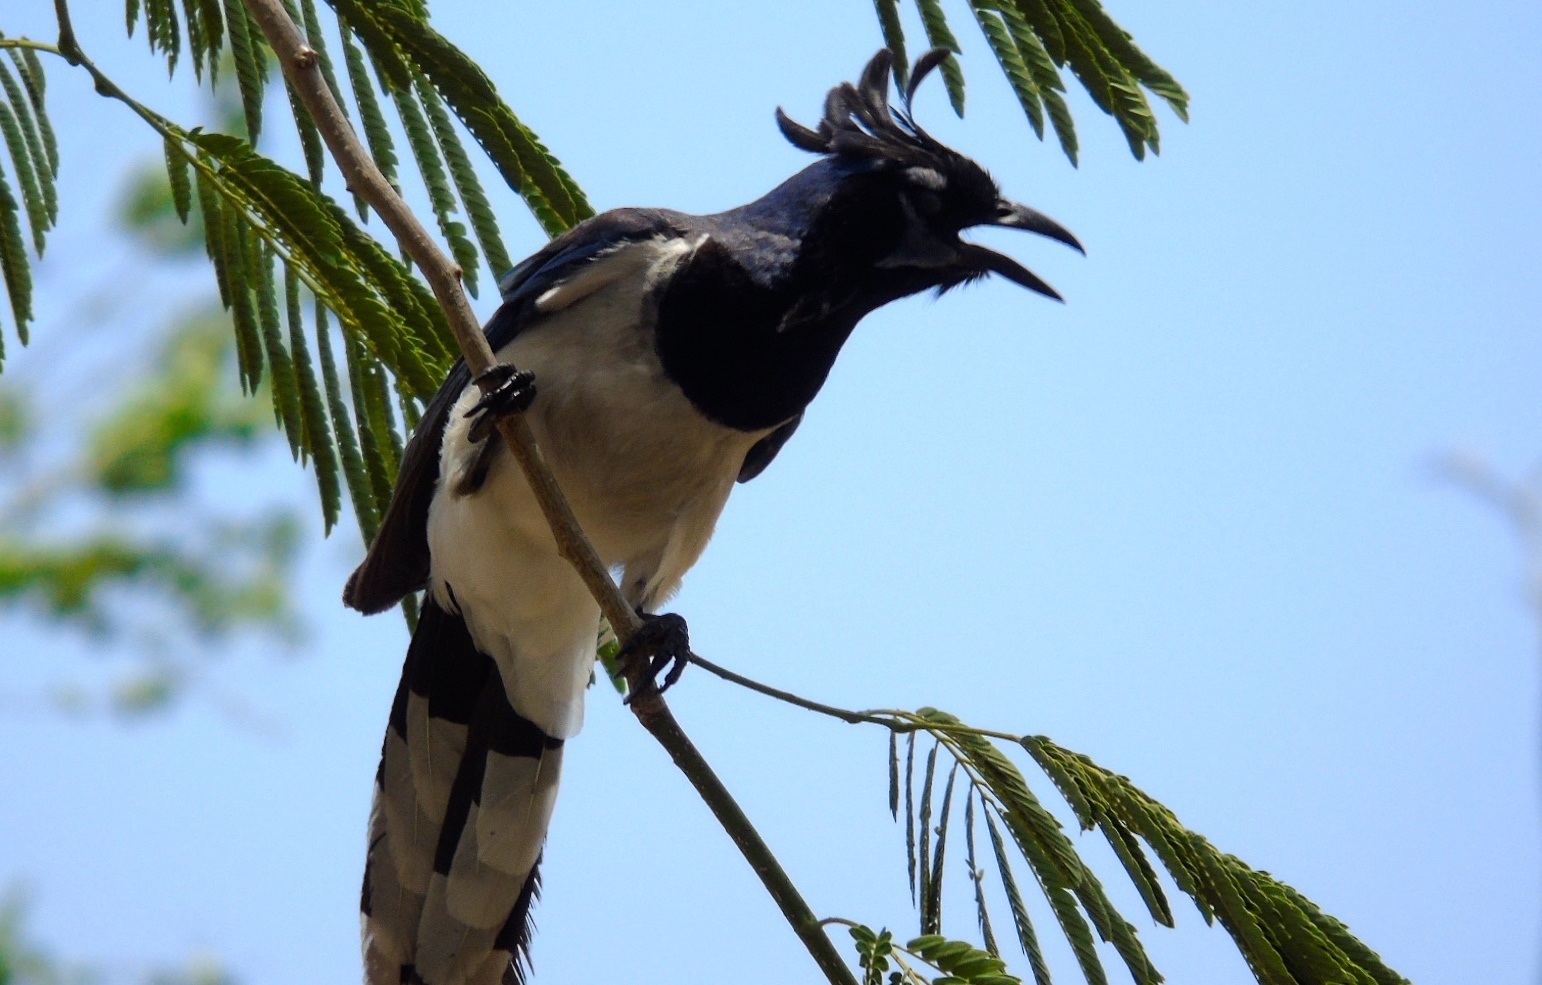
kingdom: Animalia
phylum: Chordata
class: Aves
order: Passeriformes
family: Corvidae
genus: Calocitta
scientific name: Calocitta colliei
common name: Black-throated magpie-jay
